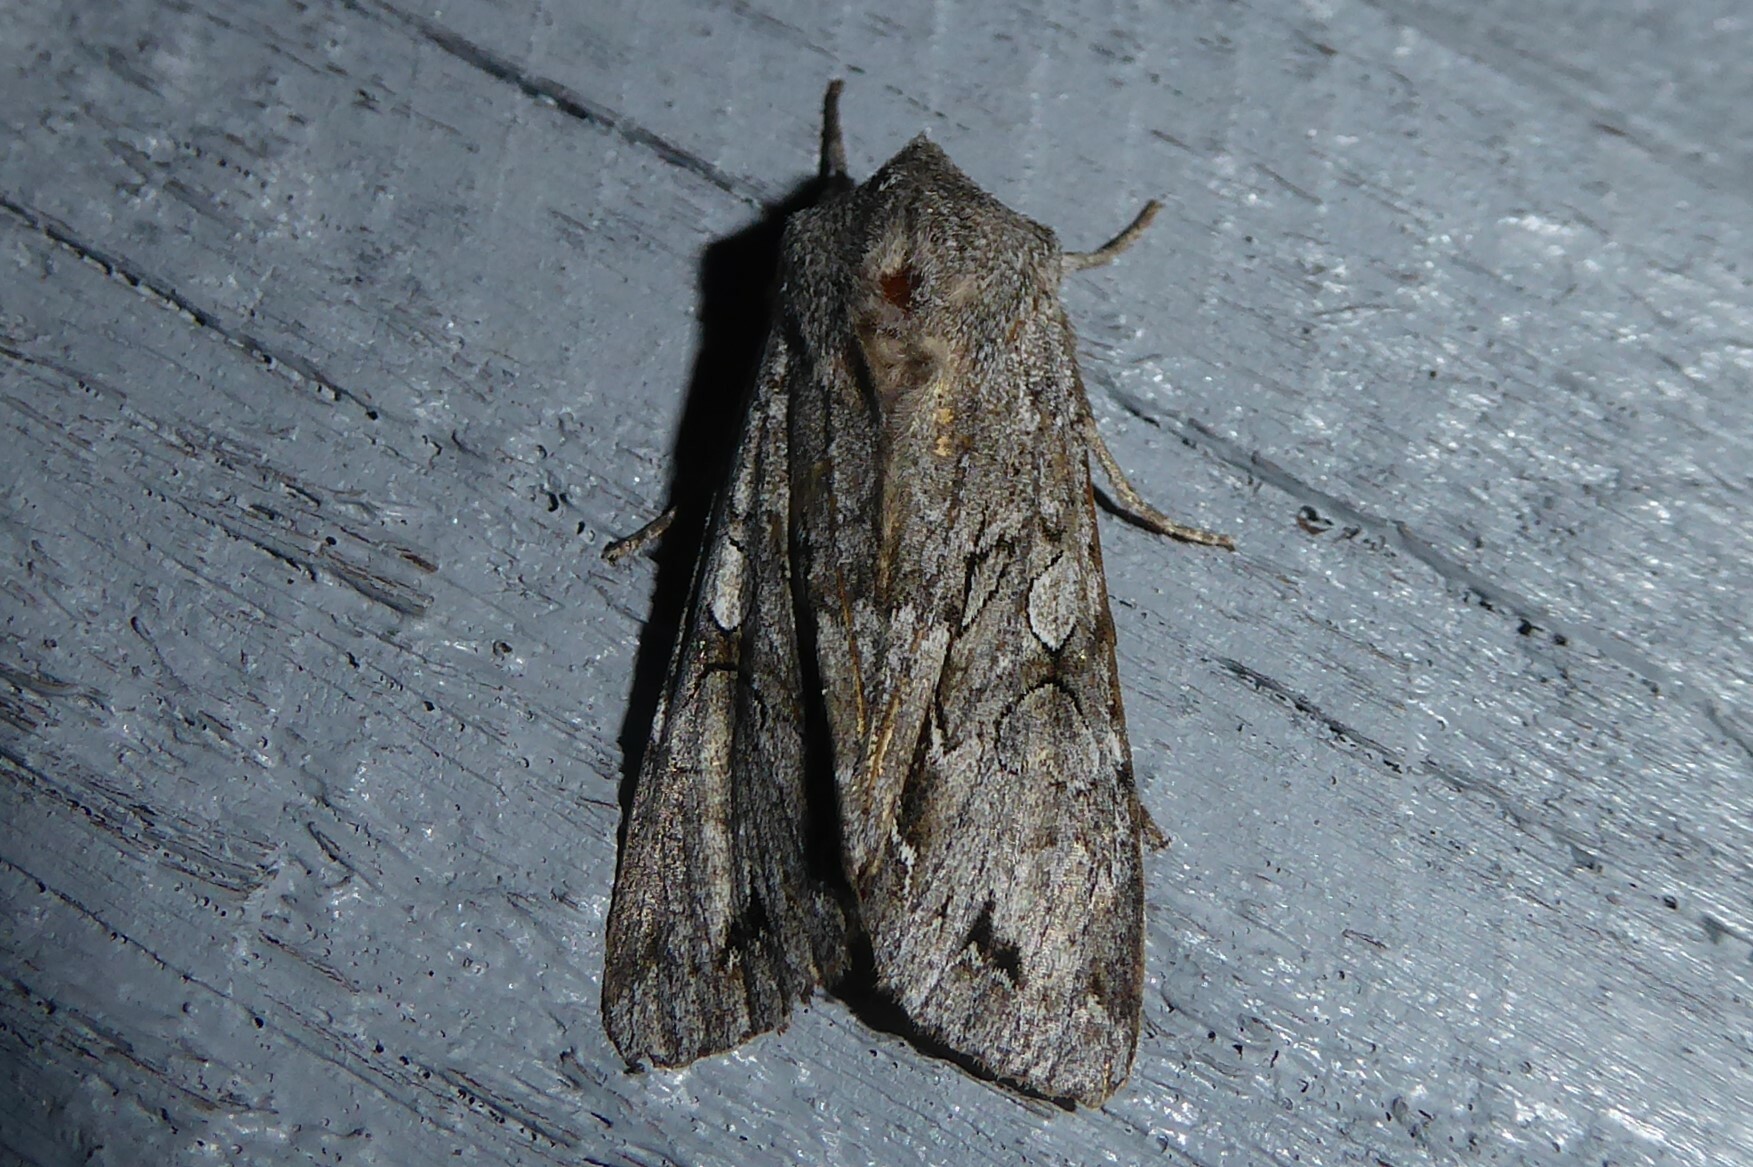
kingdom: Animalia
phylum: Arthropoda
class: Insecta
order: Lepidoptera
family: Noctuidae
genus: Ichneutica
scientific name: Ichneutica
